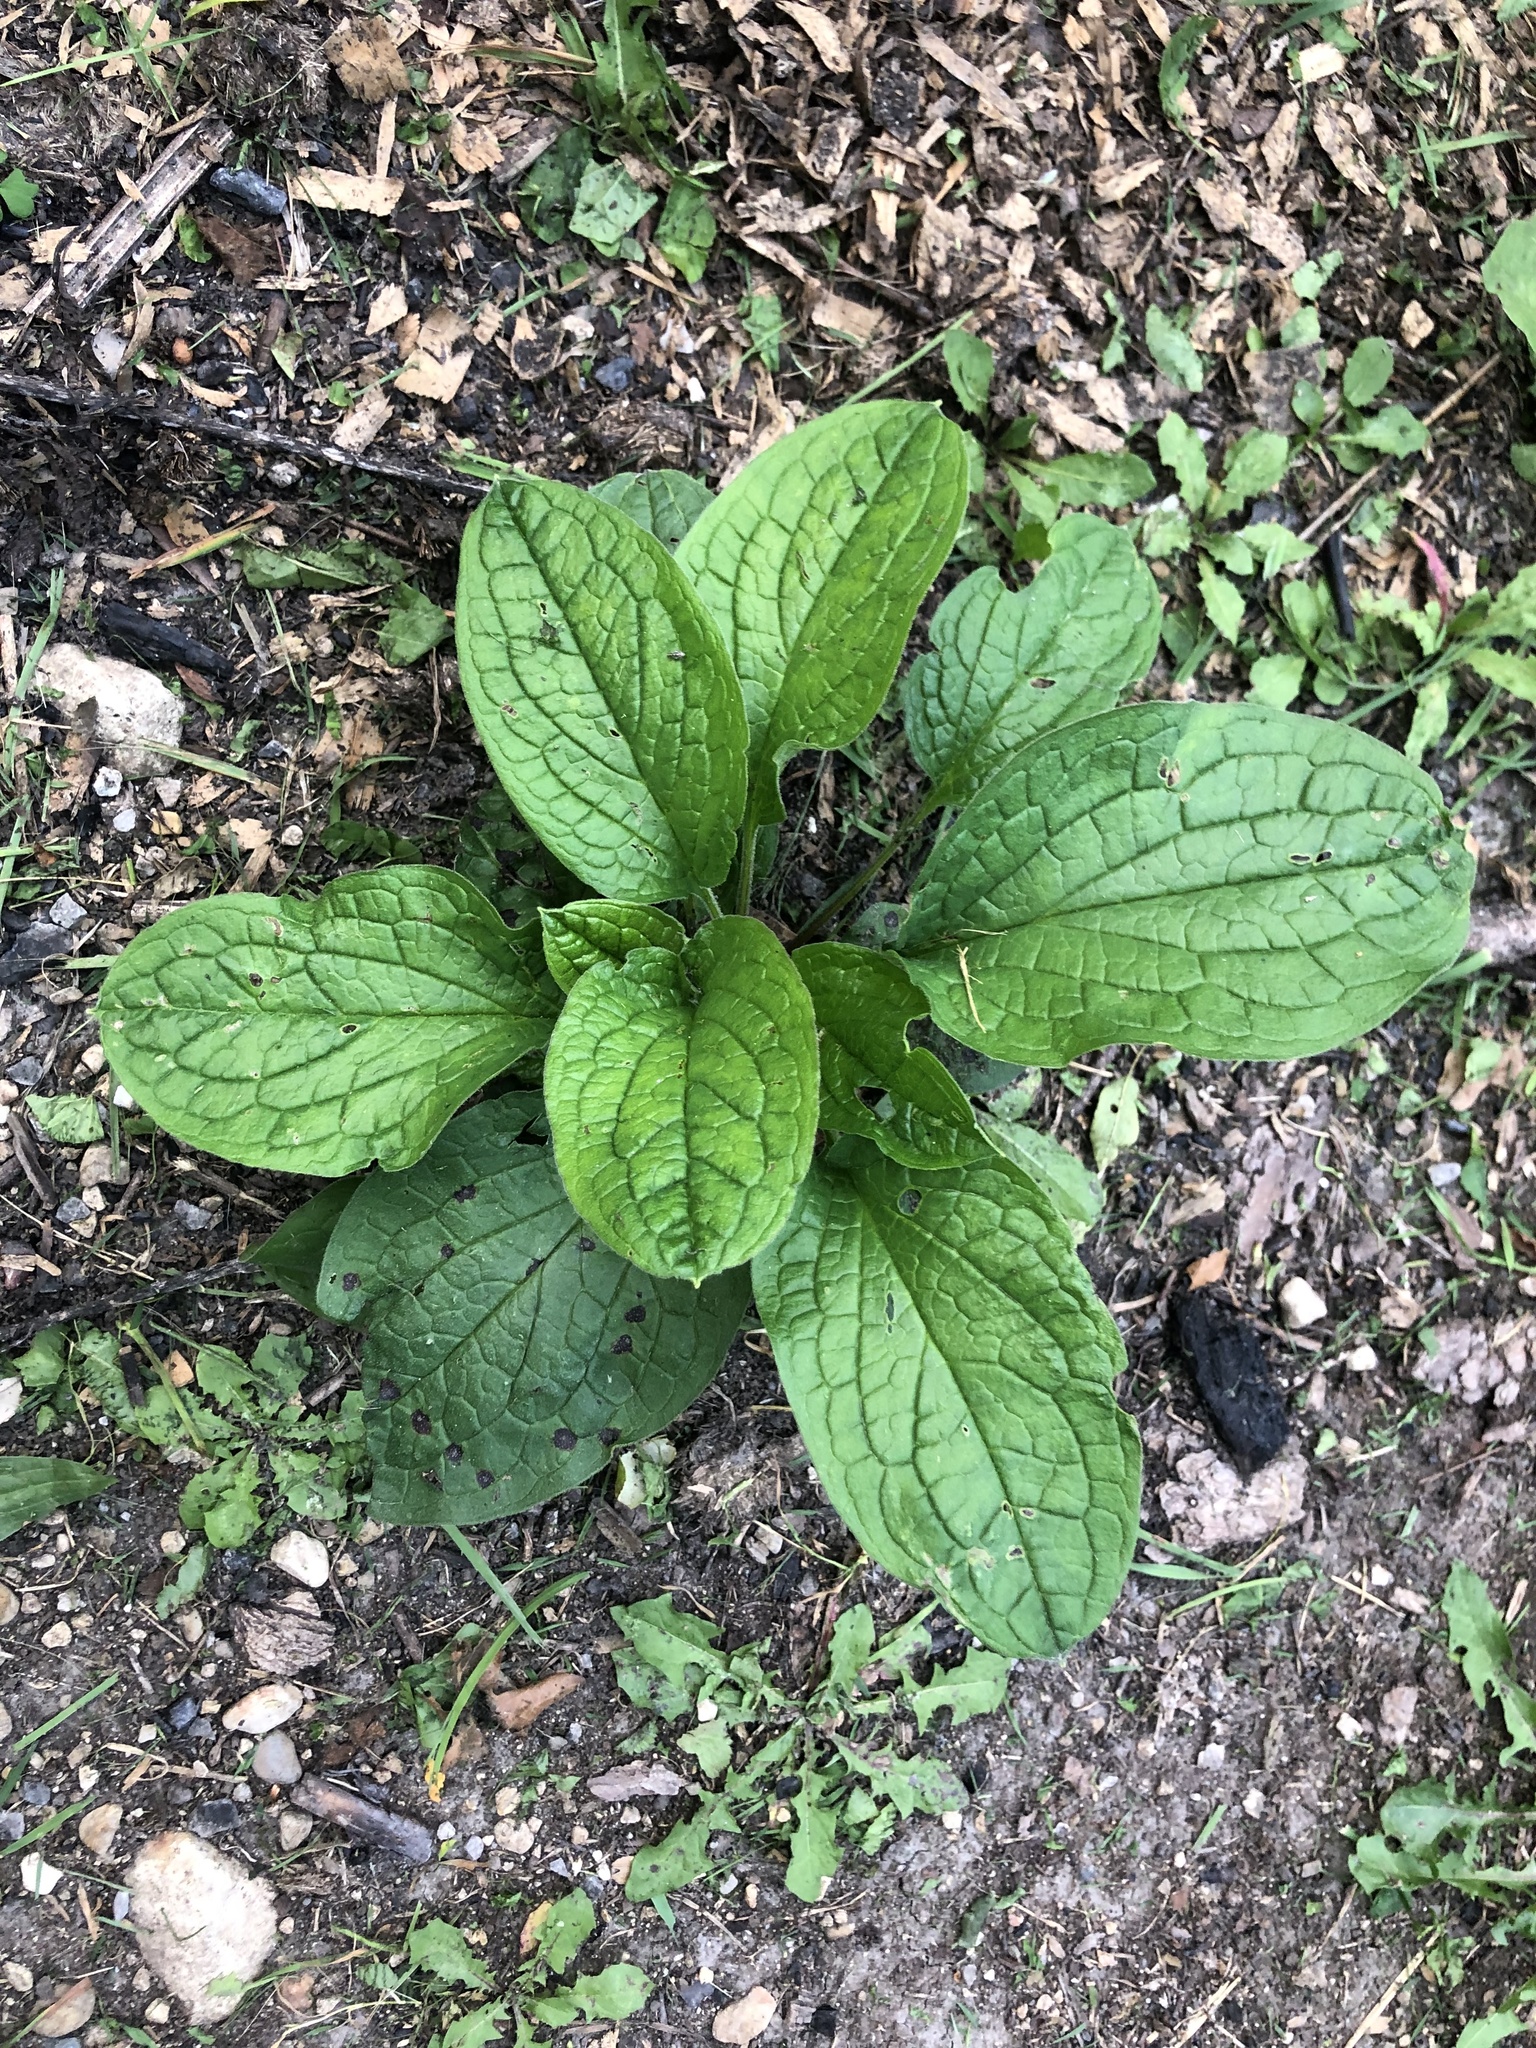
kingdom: Plantae
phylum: Tracheophyta
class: Magnoliopsida
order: Boraginales
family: Boraginaceae
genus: Hackelia
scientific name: Hackelia virginiana
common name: Beggar's-lice
